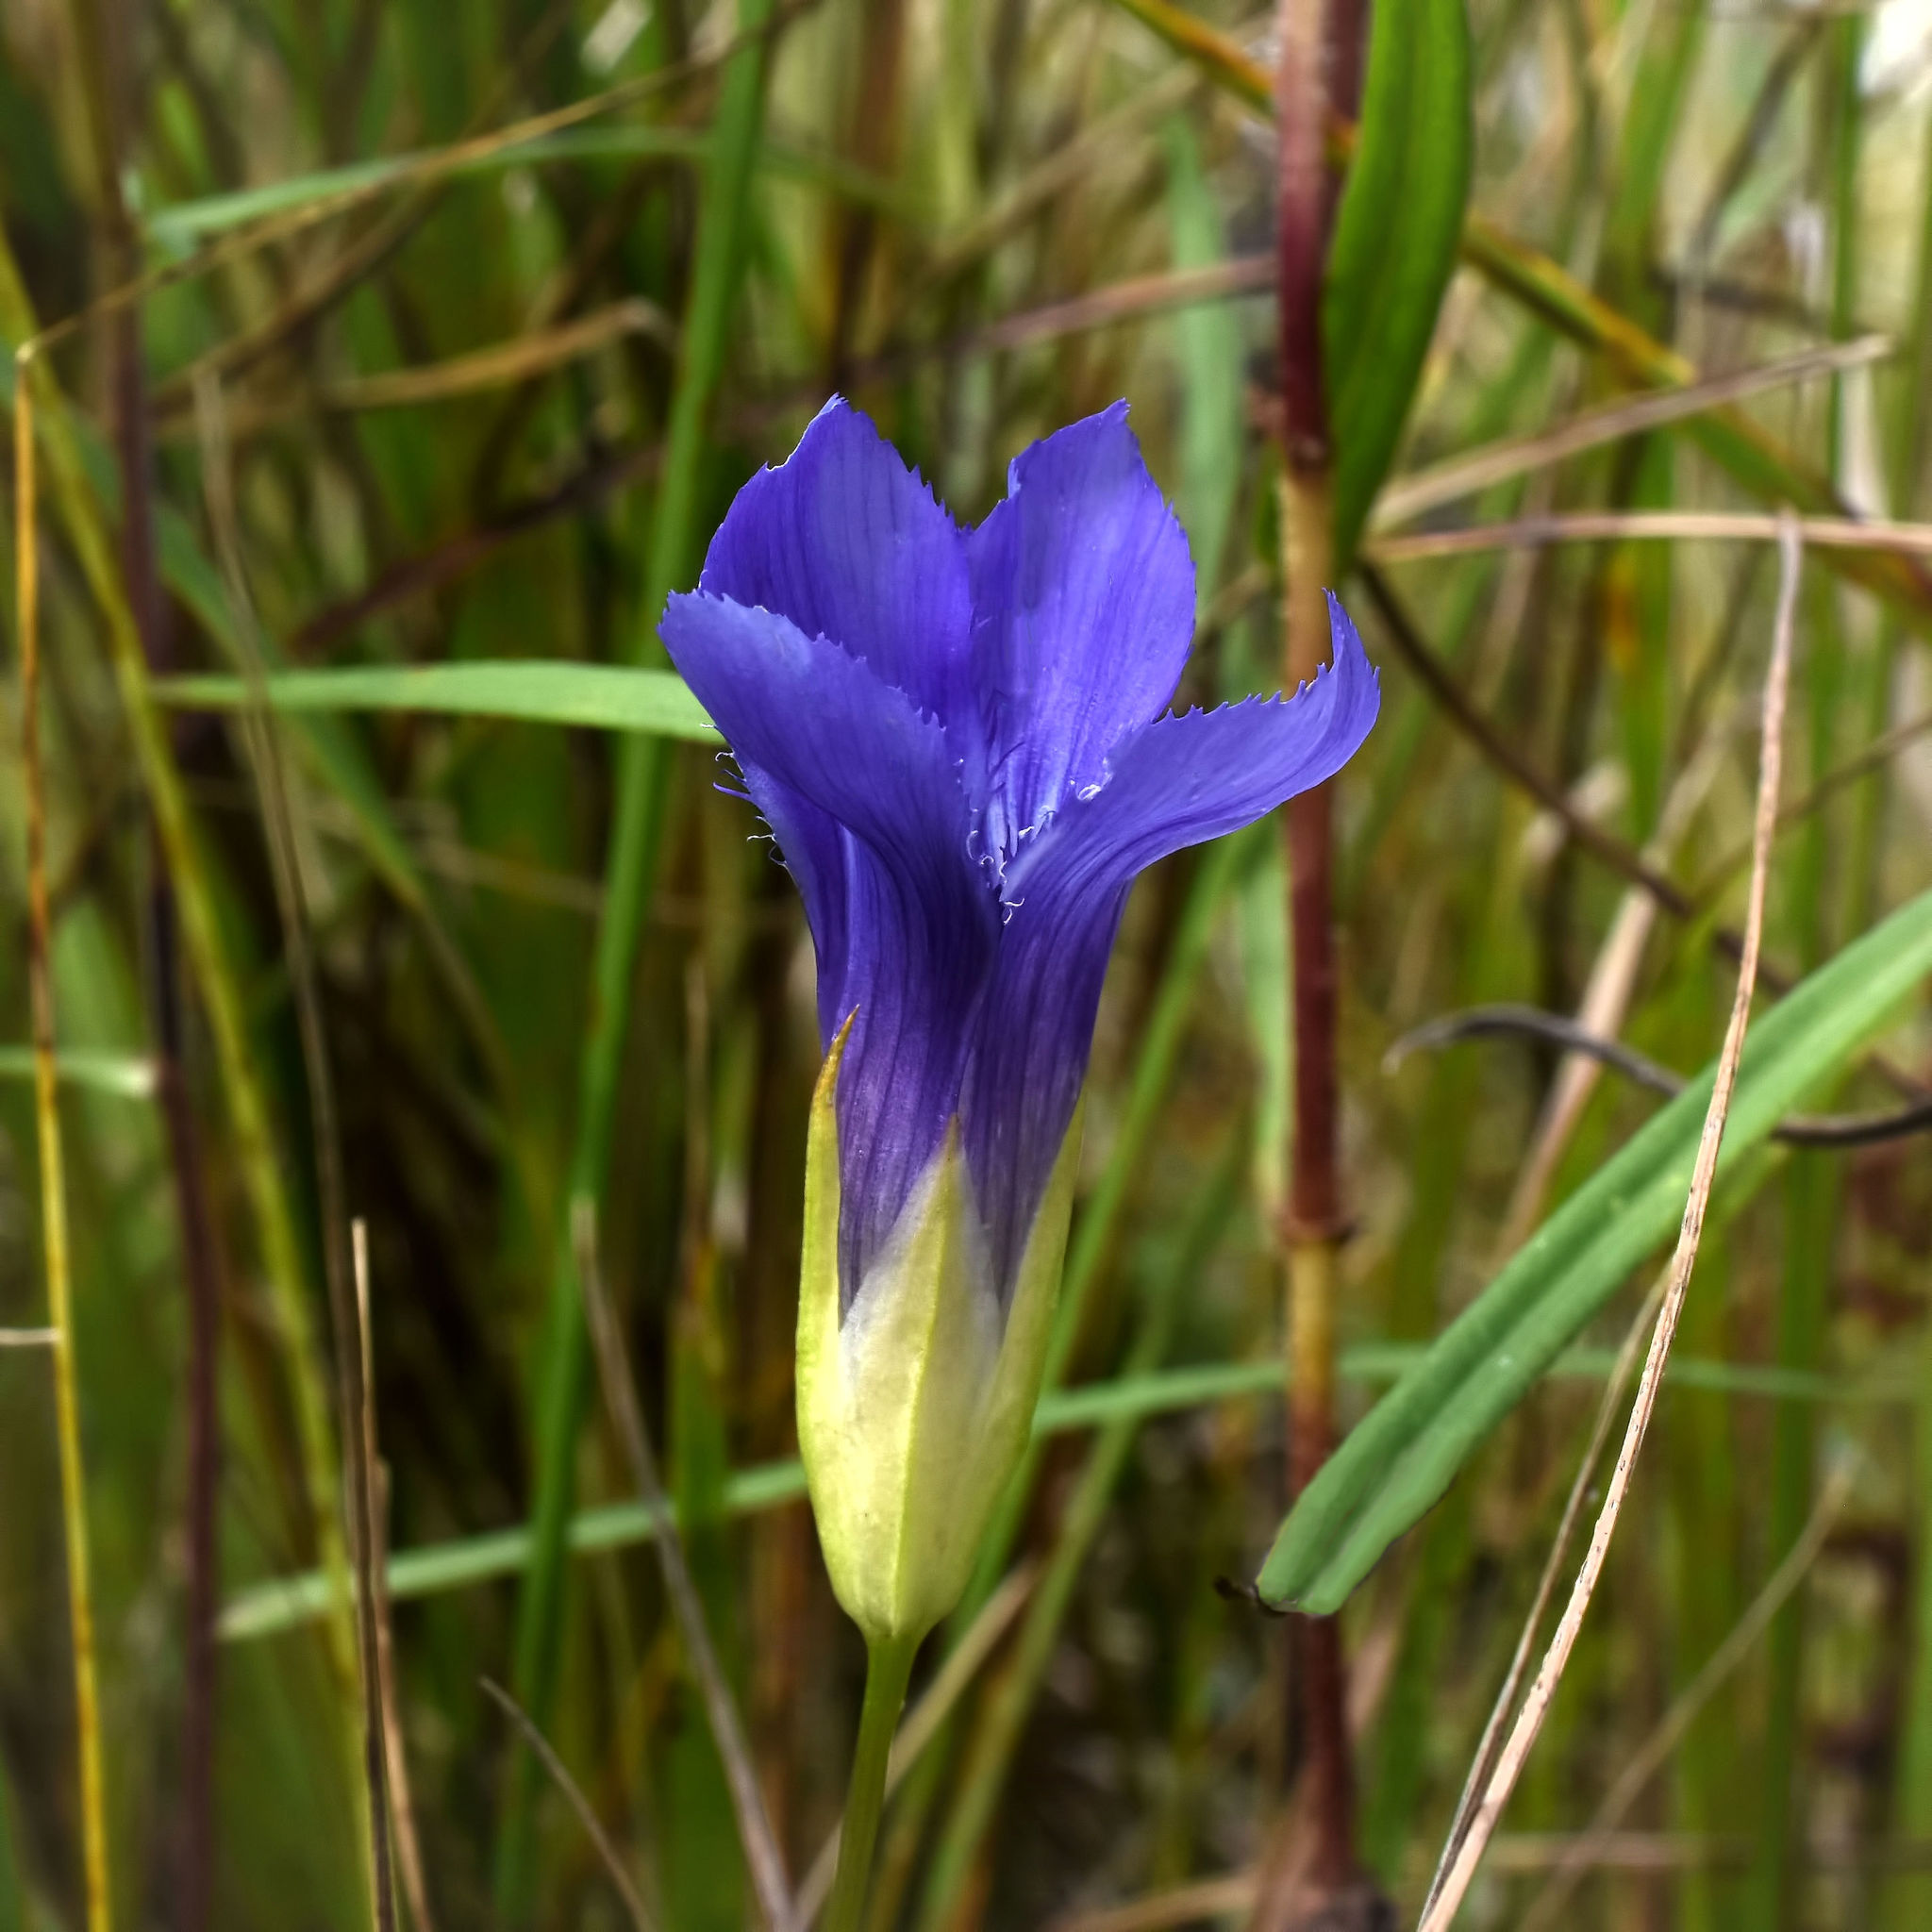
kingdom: Plantae
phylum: Tracheophyta
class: Magnoliopsida
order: Gentianales
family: Gentianaceae
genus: Gentianopsis
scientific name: Gentianopsis virgata
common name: Lesser fringed-gentian
